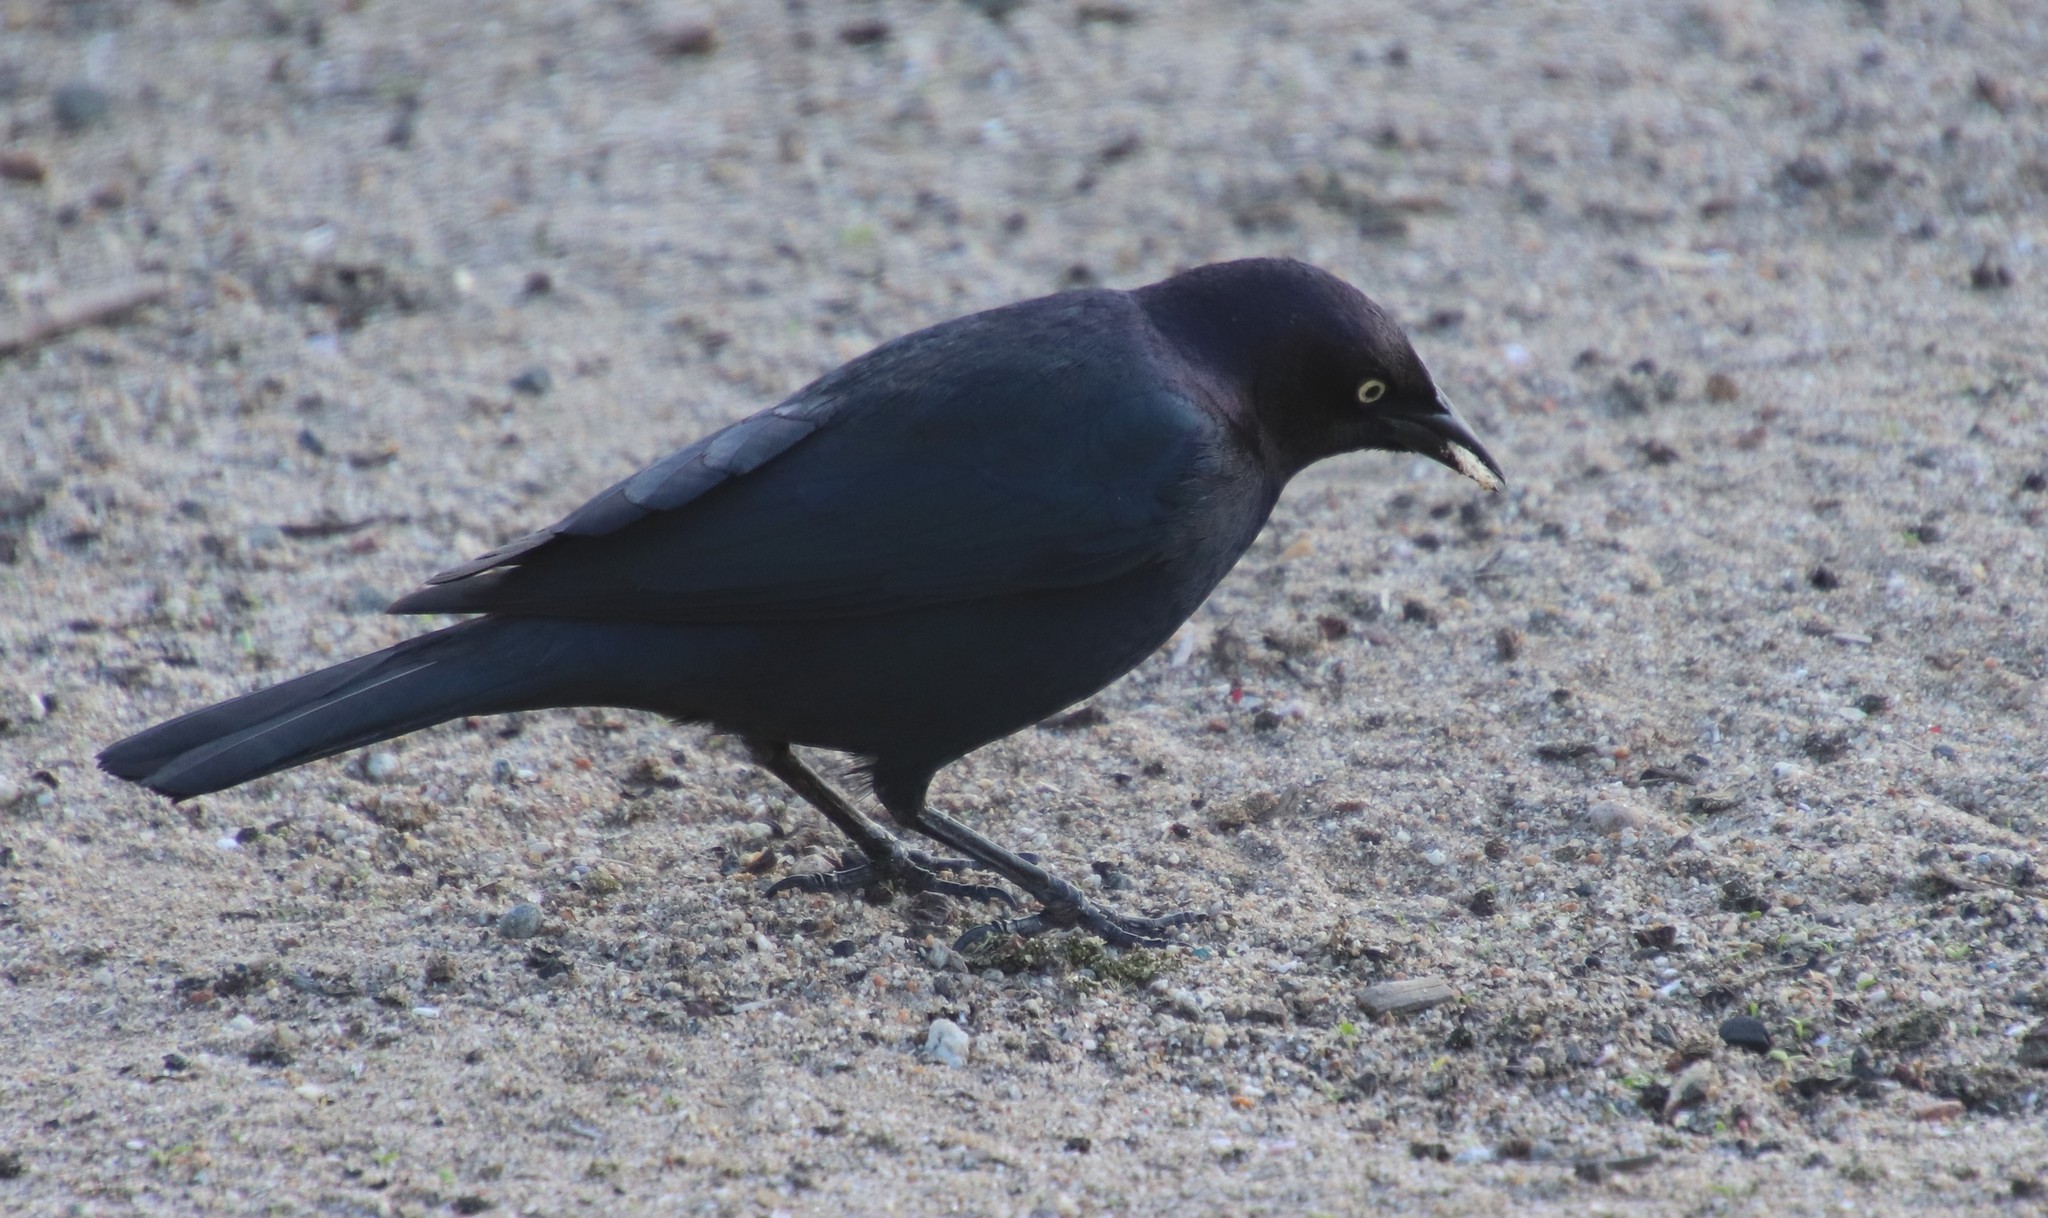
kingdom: Animalia
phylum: Chordata
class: Aves
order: Passeriformes
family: Icteridae
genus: Euphagus
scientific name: Euphagus cyanocephalus
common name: Brewer's blackbird
